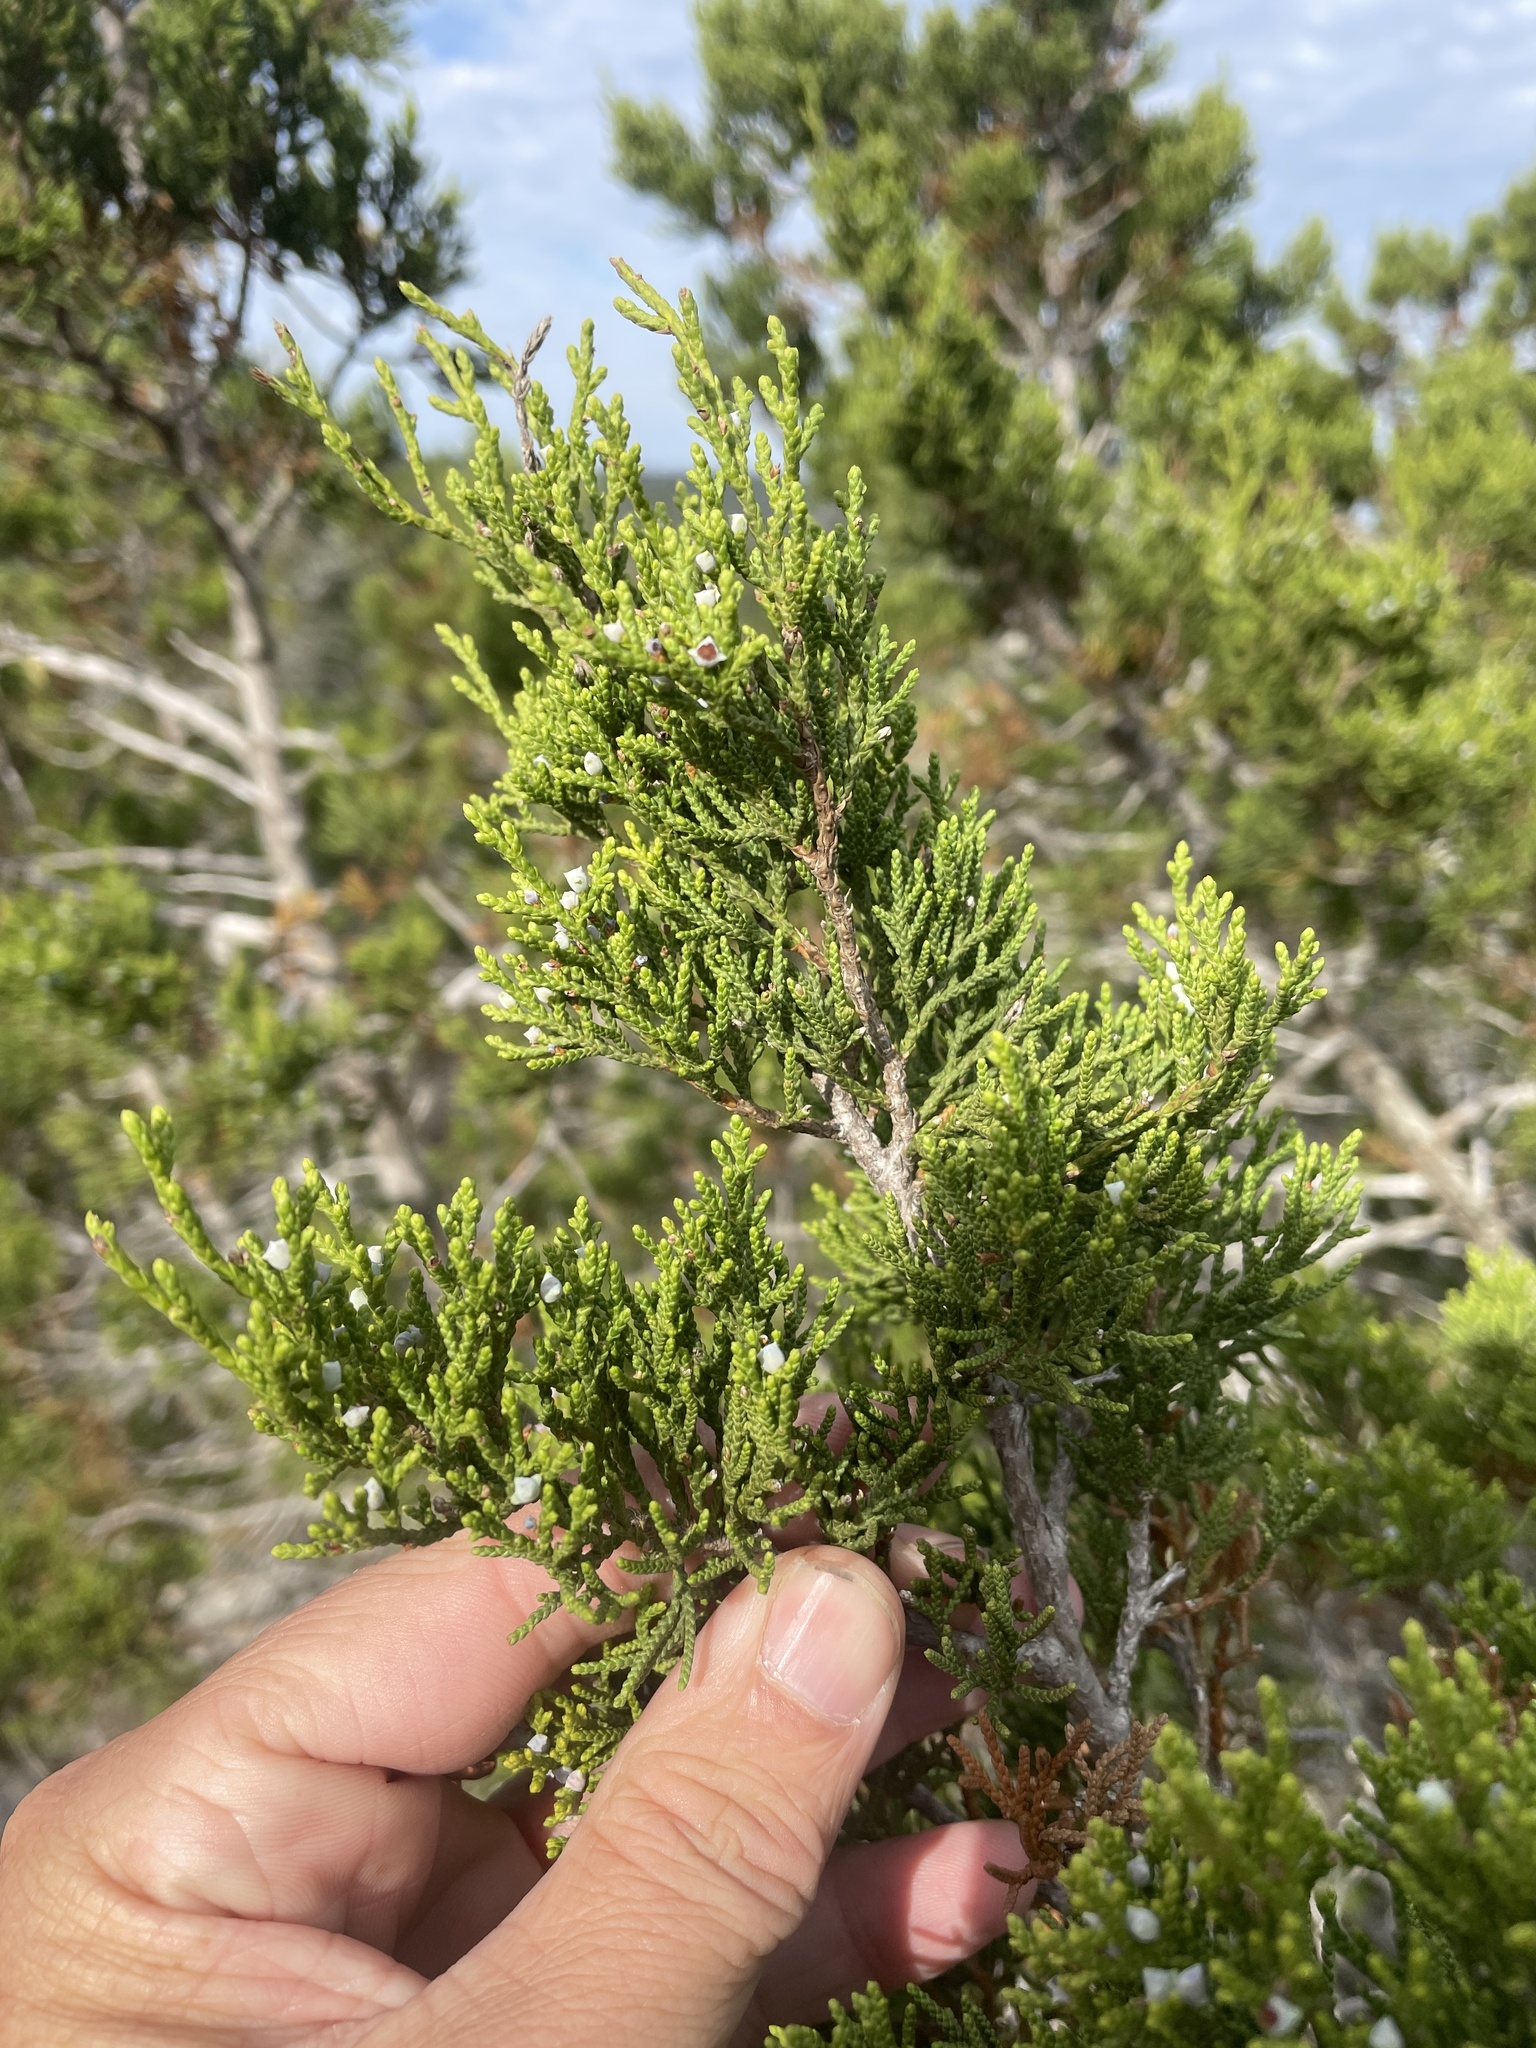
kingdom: Plantae
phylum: Tracheophyta
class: Pinopsida
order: Pinales
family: Cupressaceae
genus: Juniperus
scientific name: Juniperus ashei
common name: Mexican juniper
